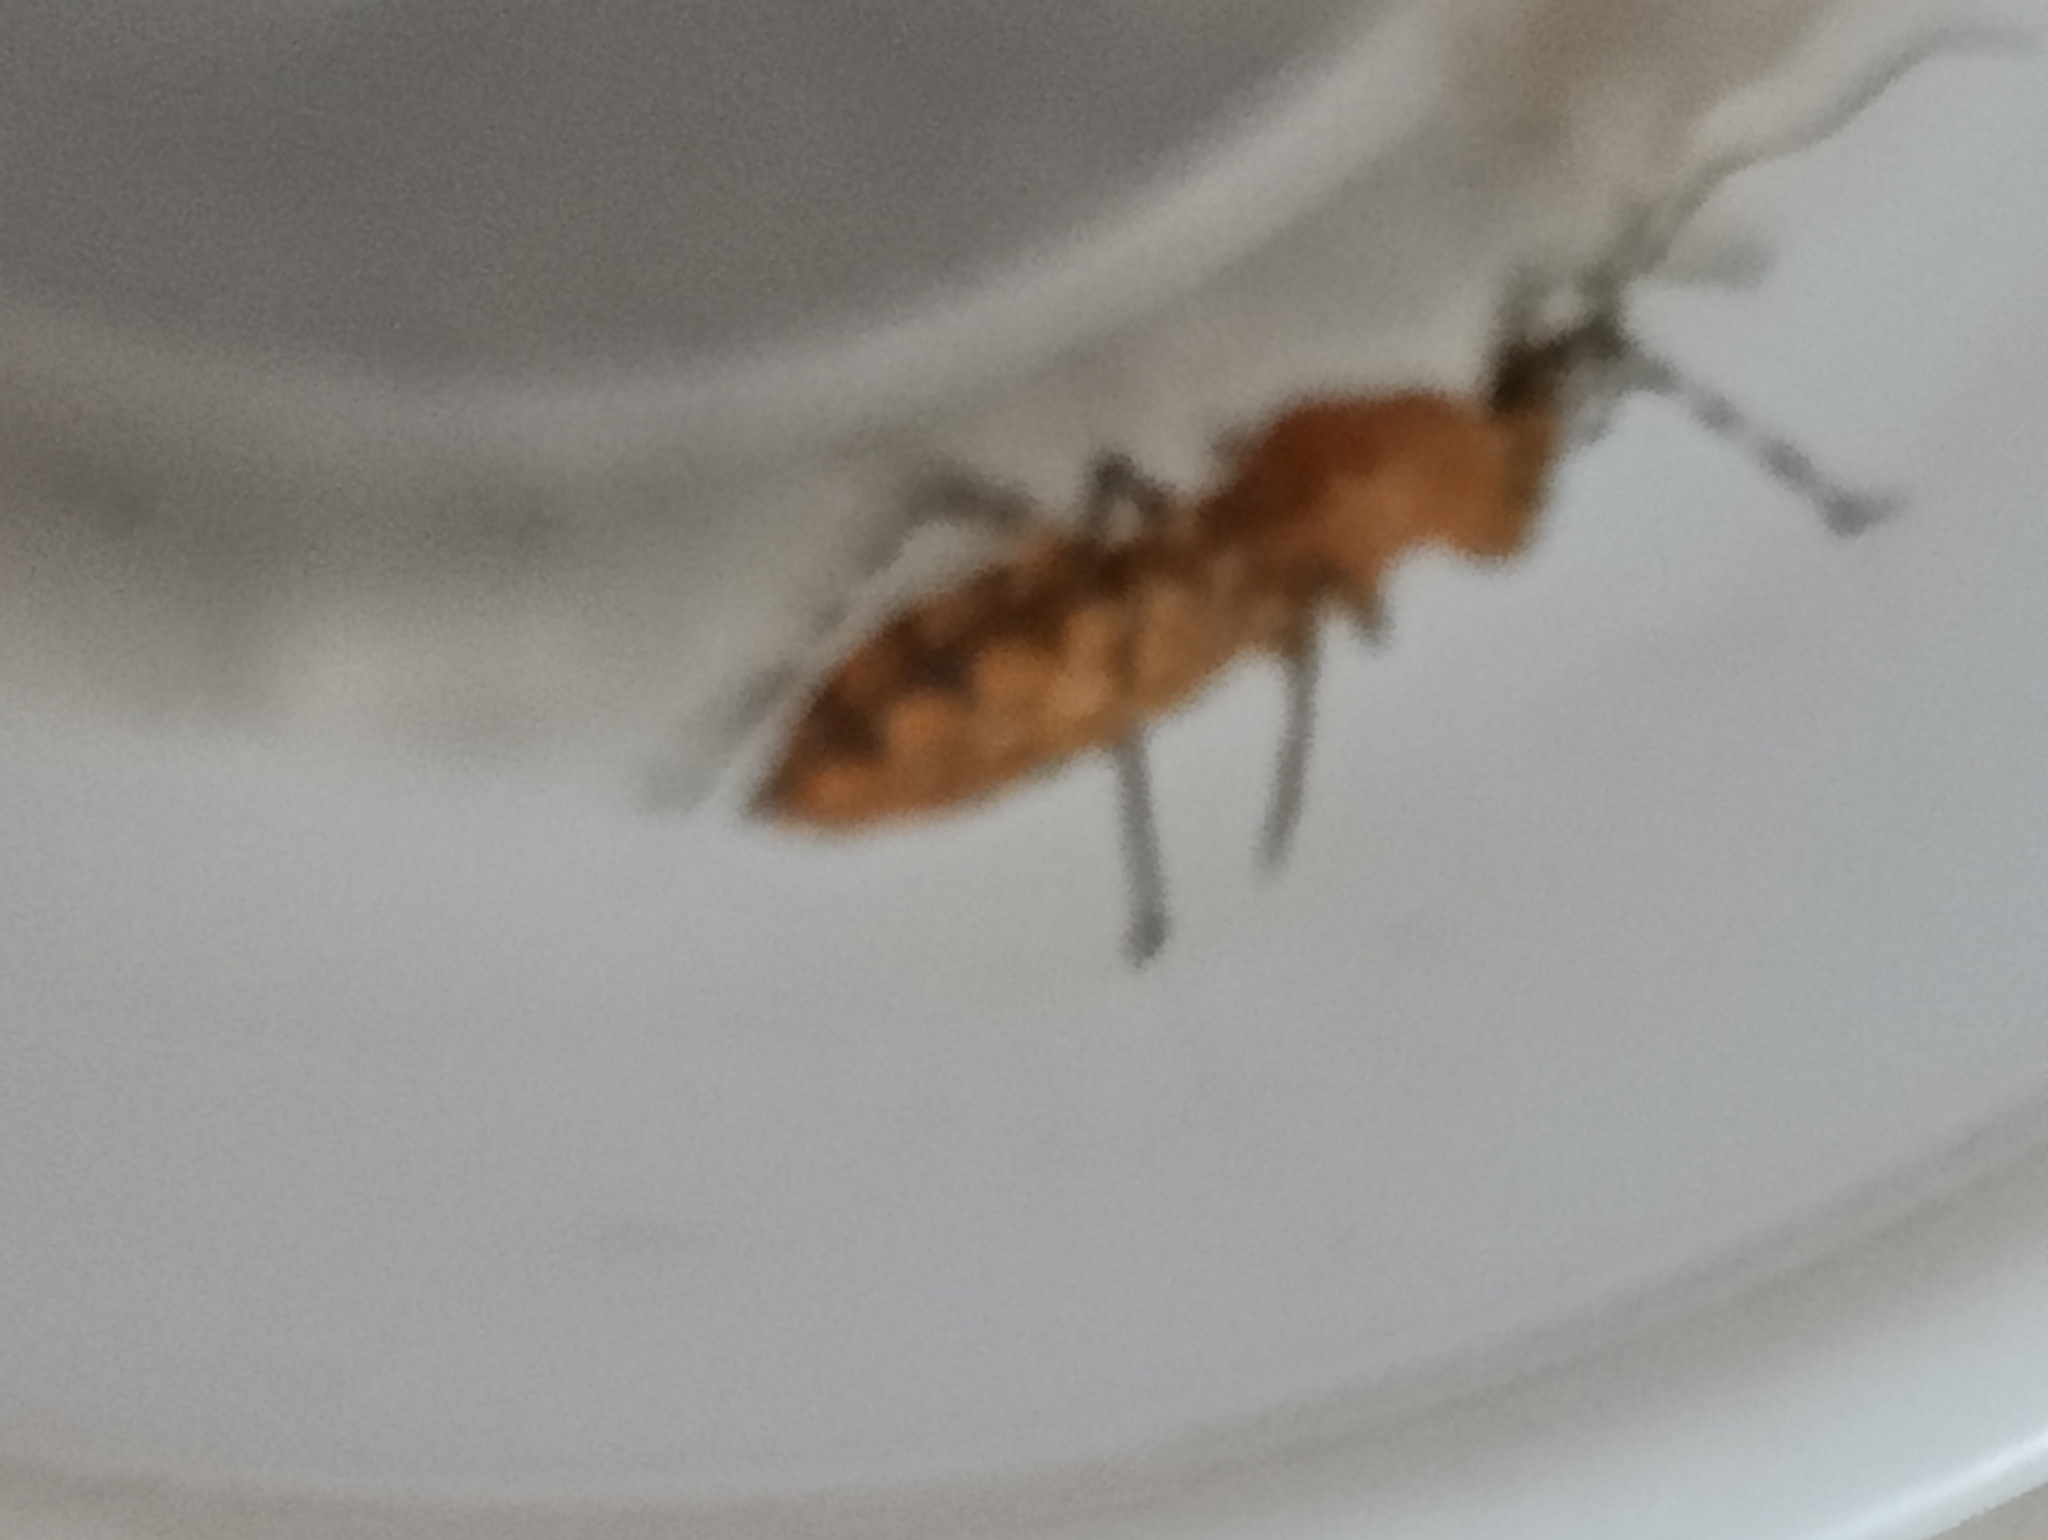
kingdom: Animalia
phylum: Arthropoda
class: Insecta
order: Hemiptera
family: Reduviidae
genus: Pselliopus
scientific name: Pselliopus barberi
